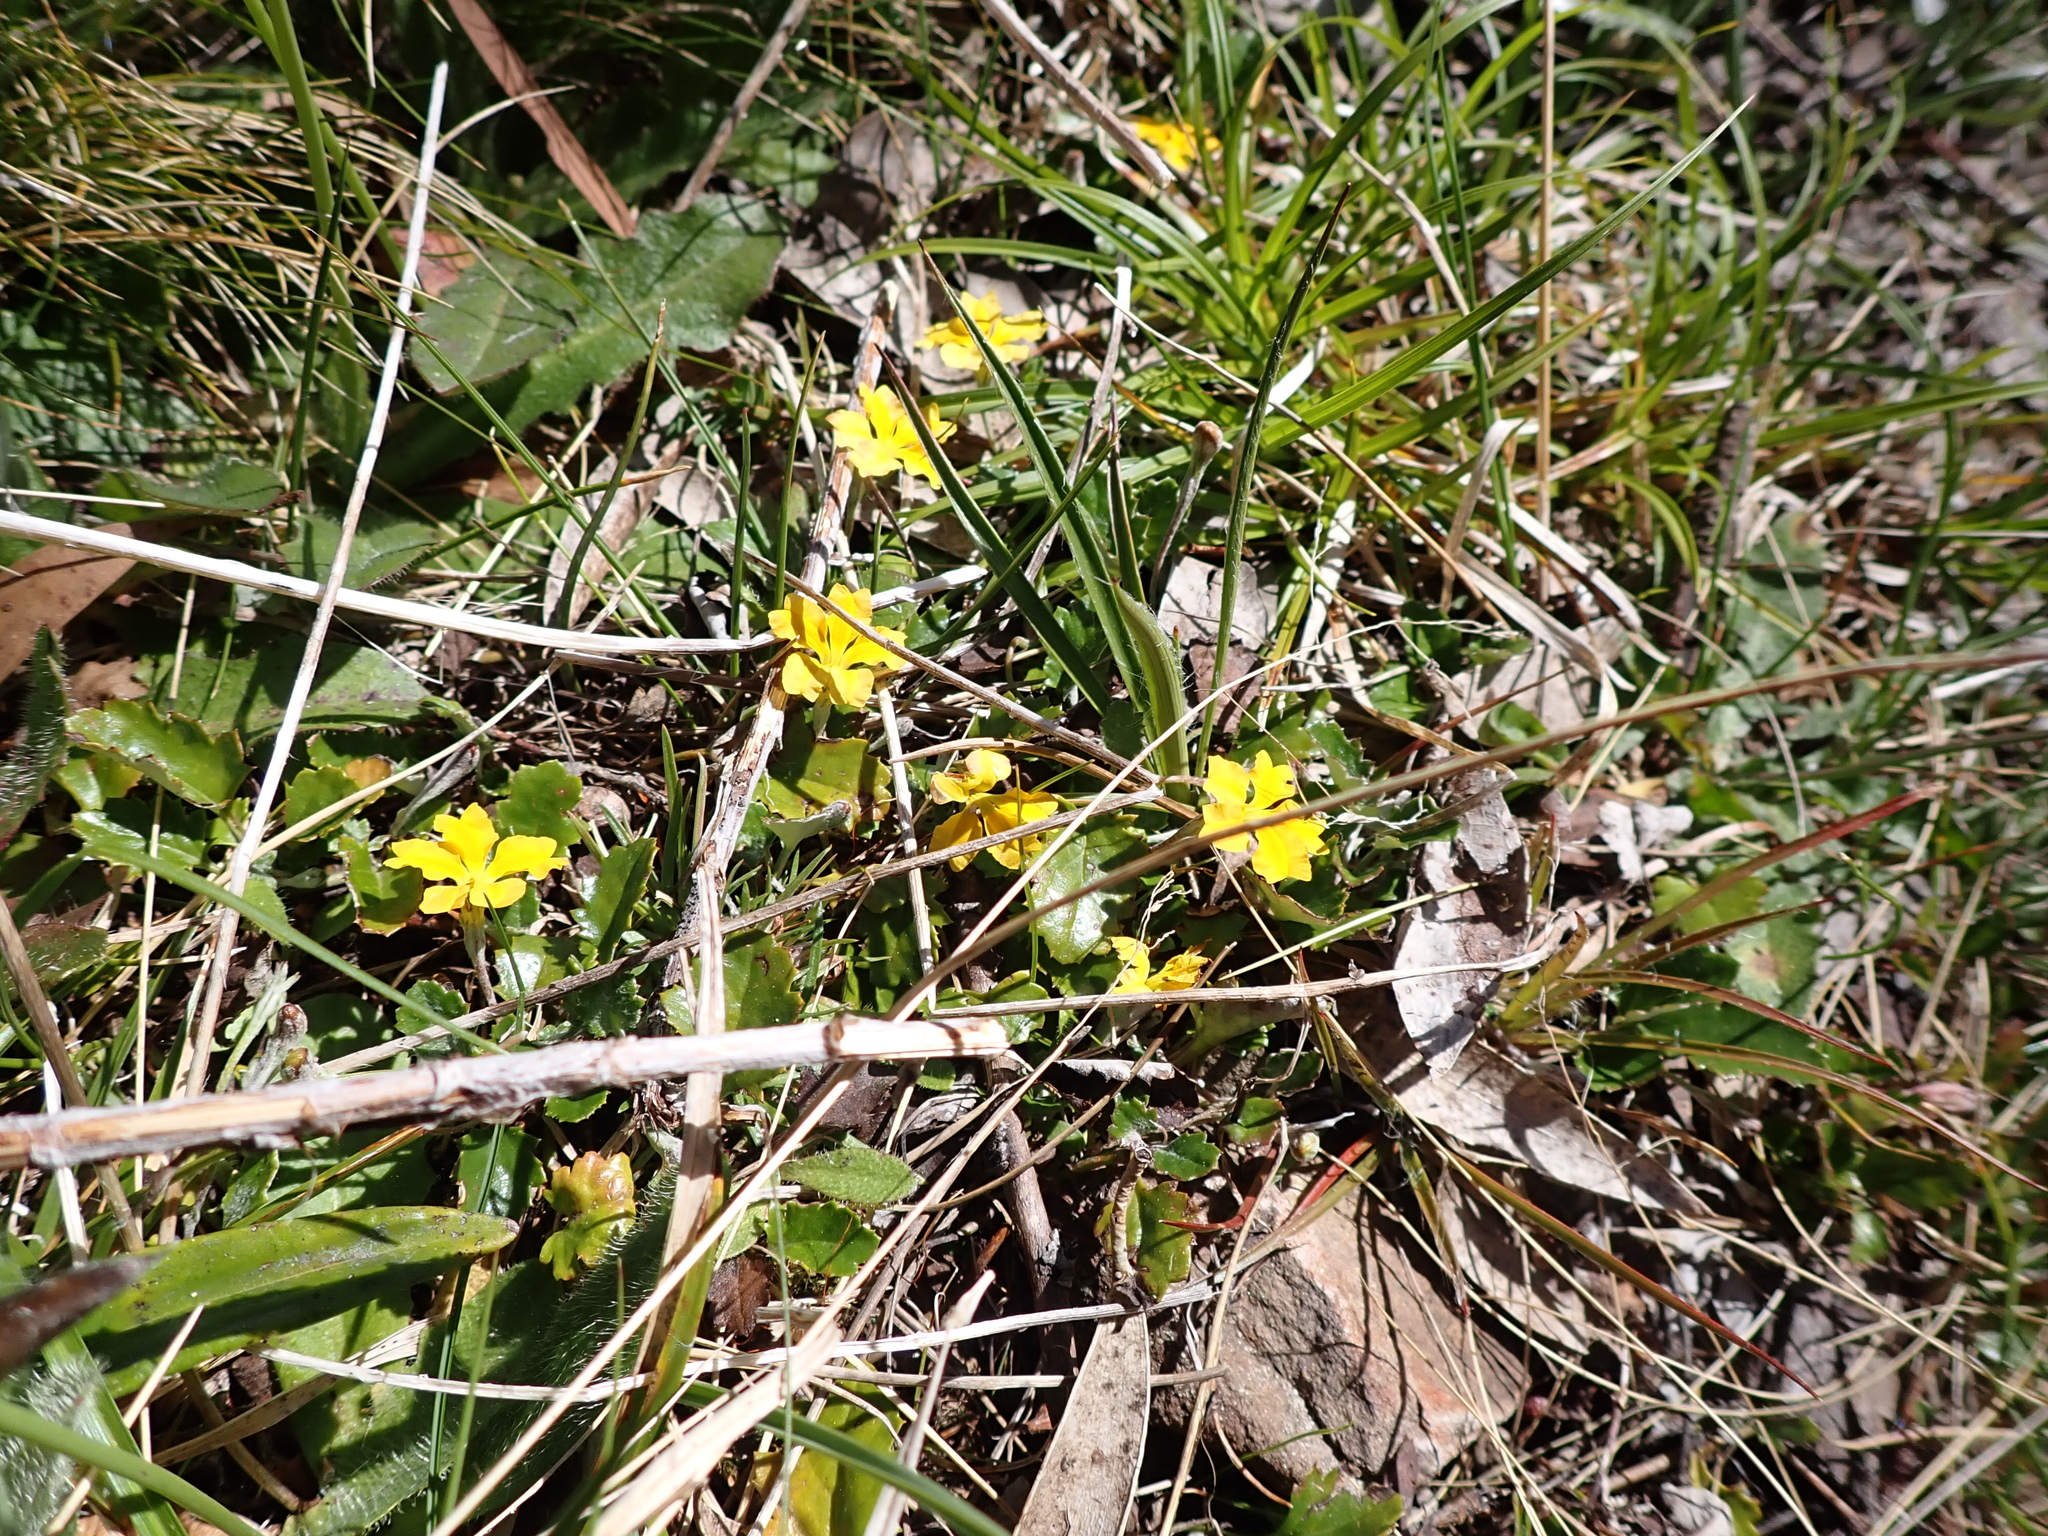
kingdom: Plantae
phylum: Tracheophyta
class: Magnoliopsida
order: Asterales
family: Goodeniaceae
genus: Goodenia
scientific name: Goodenia hederacea
